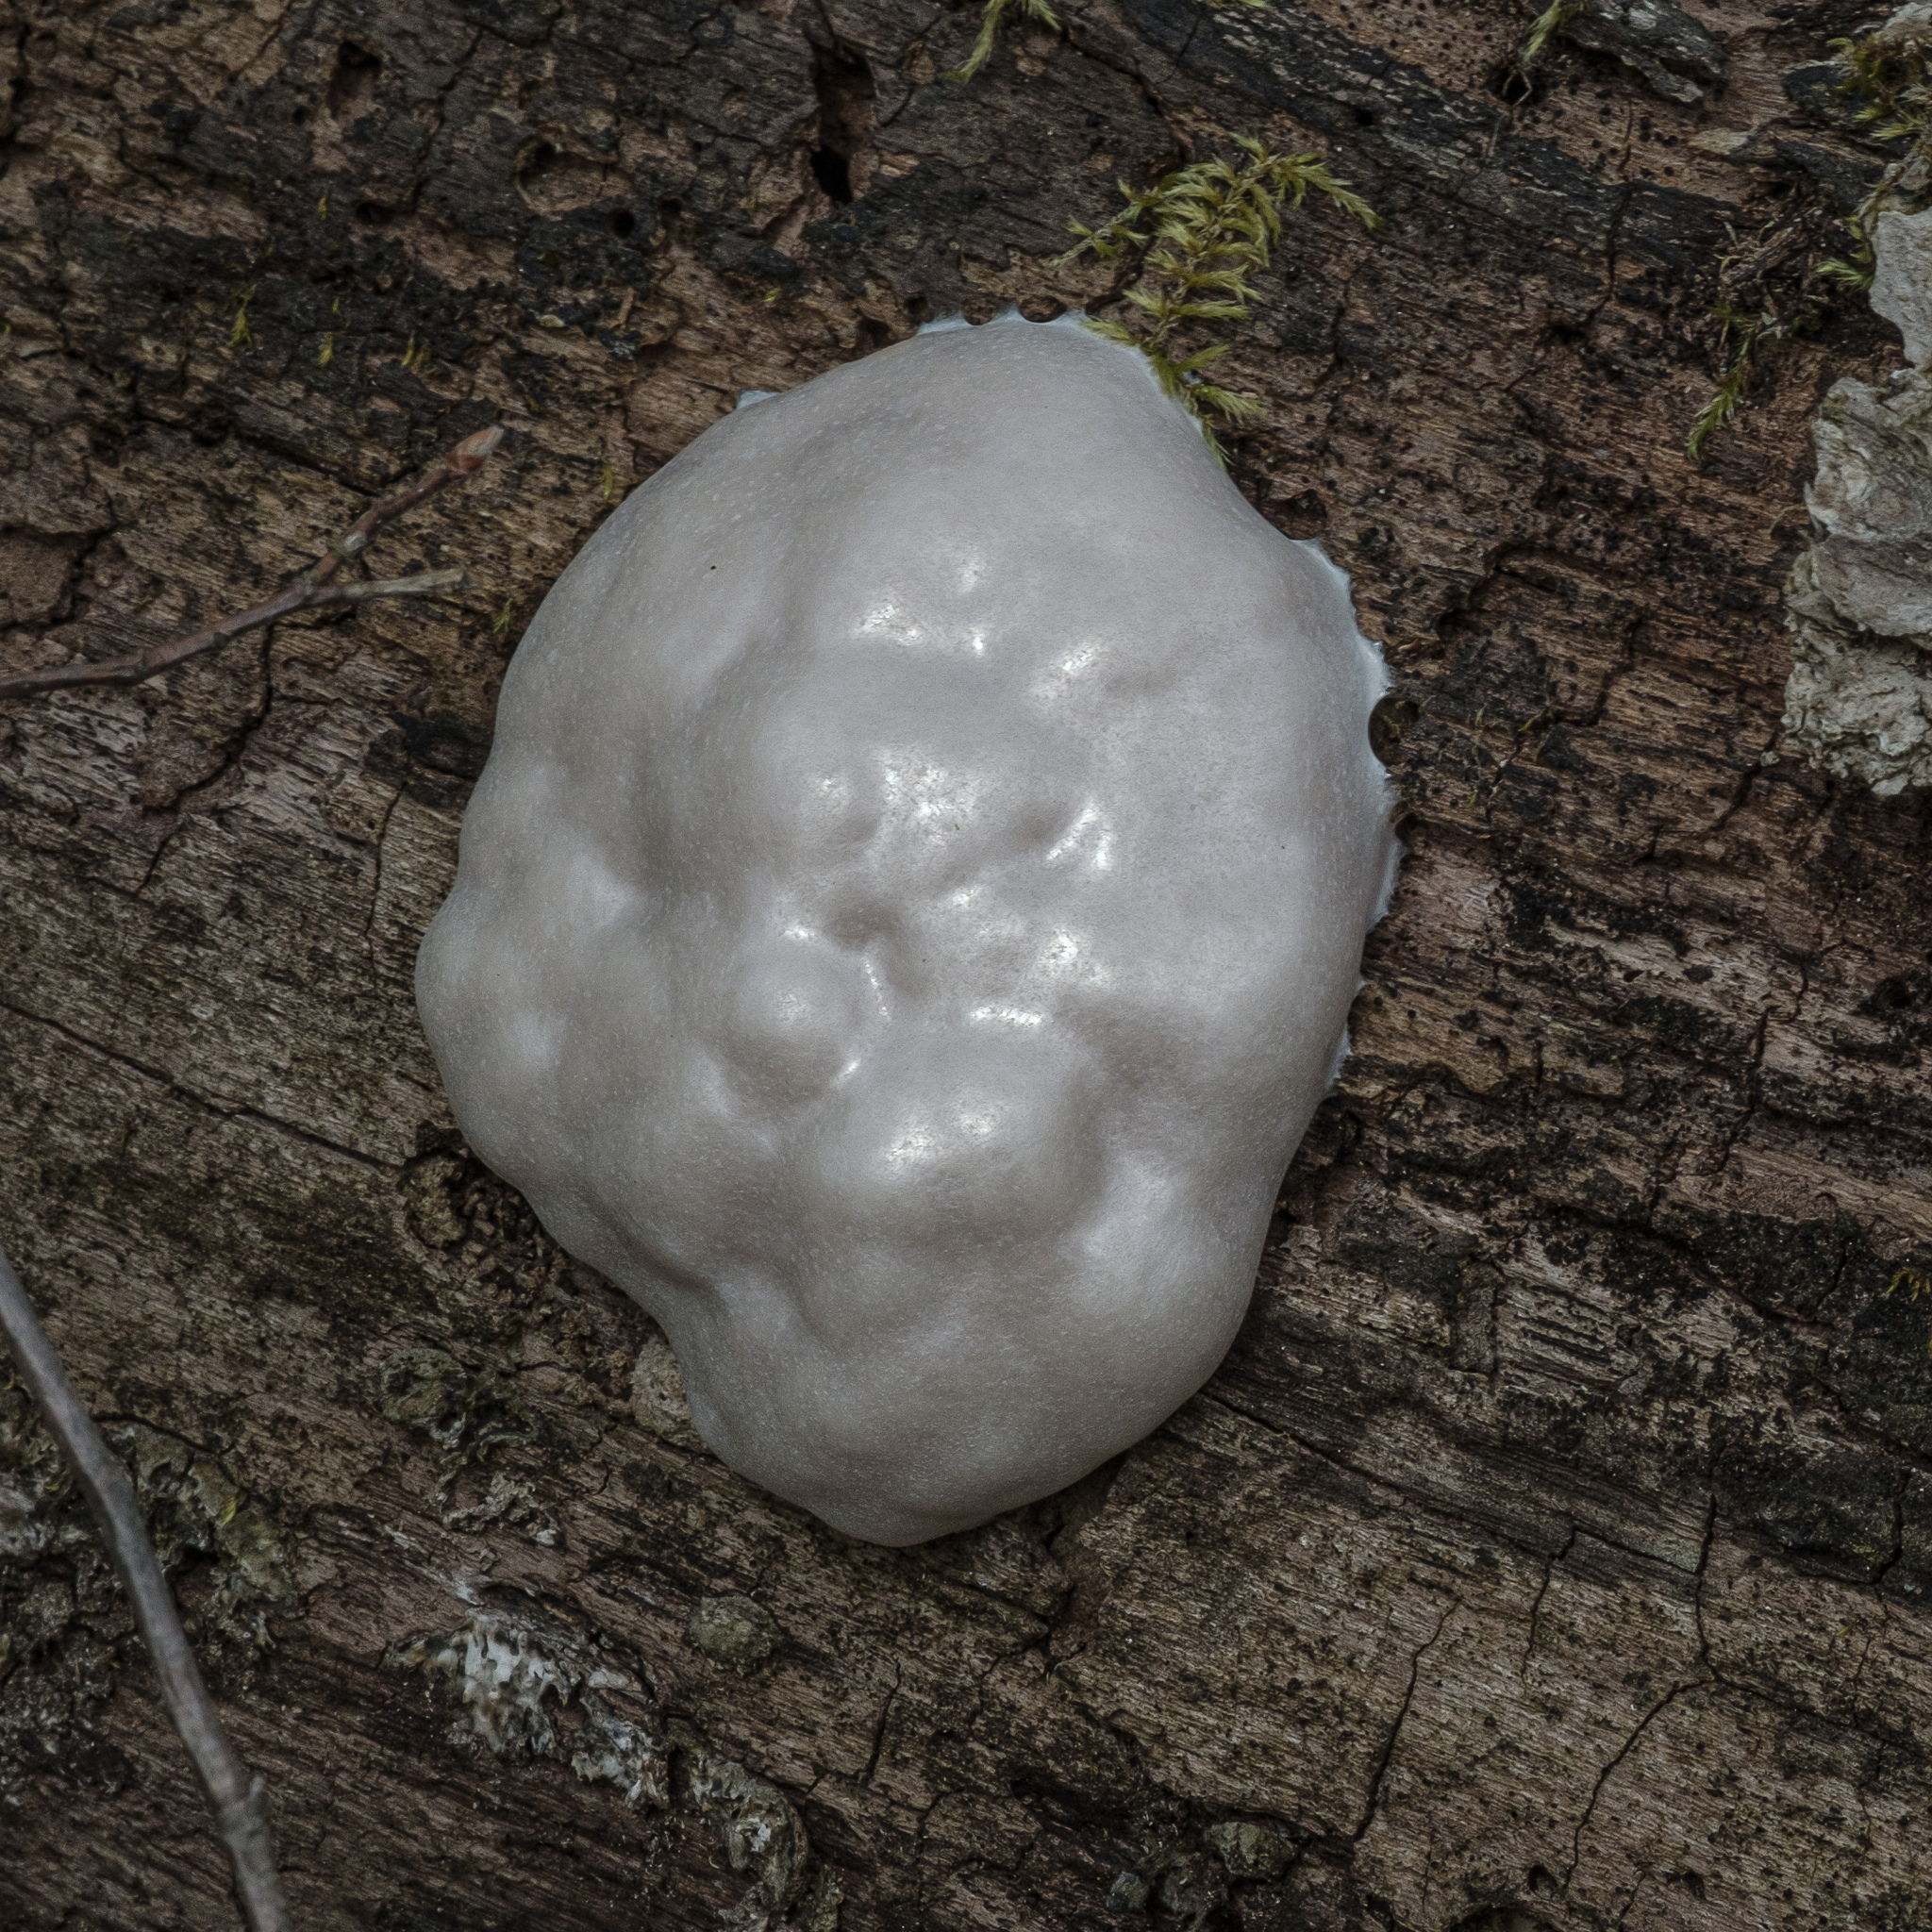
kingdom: Protozoa
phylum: Mycetozoa
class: Myxomycetes
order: Cribrariales
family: Tubiferaceae
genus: Reticularia
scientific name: Reticularia lycoperdon
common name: False puffball
